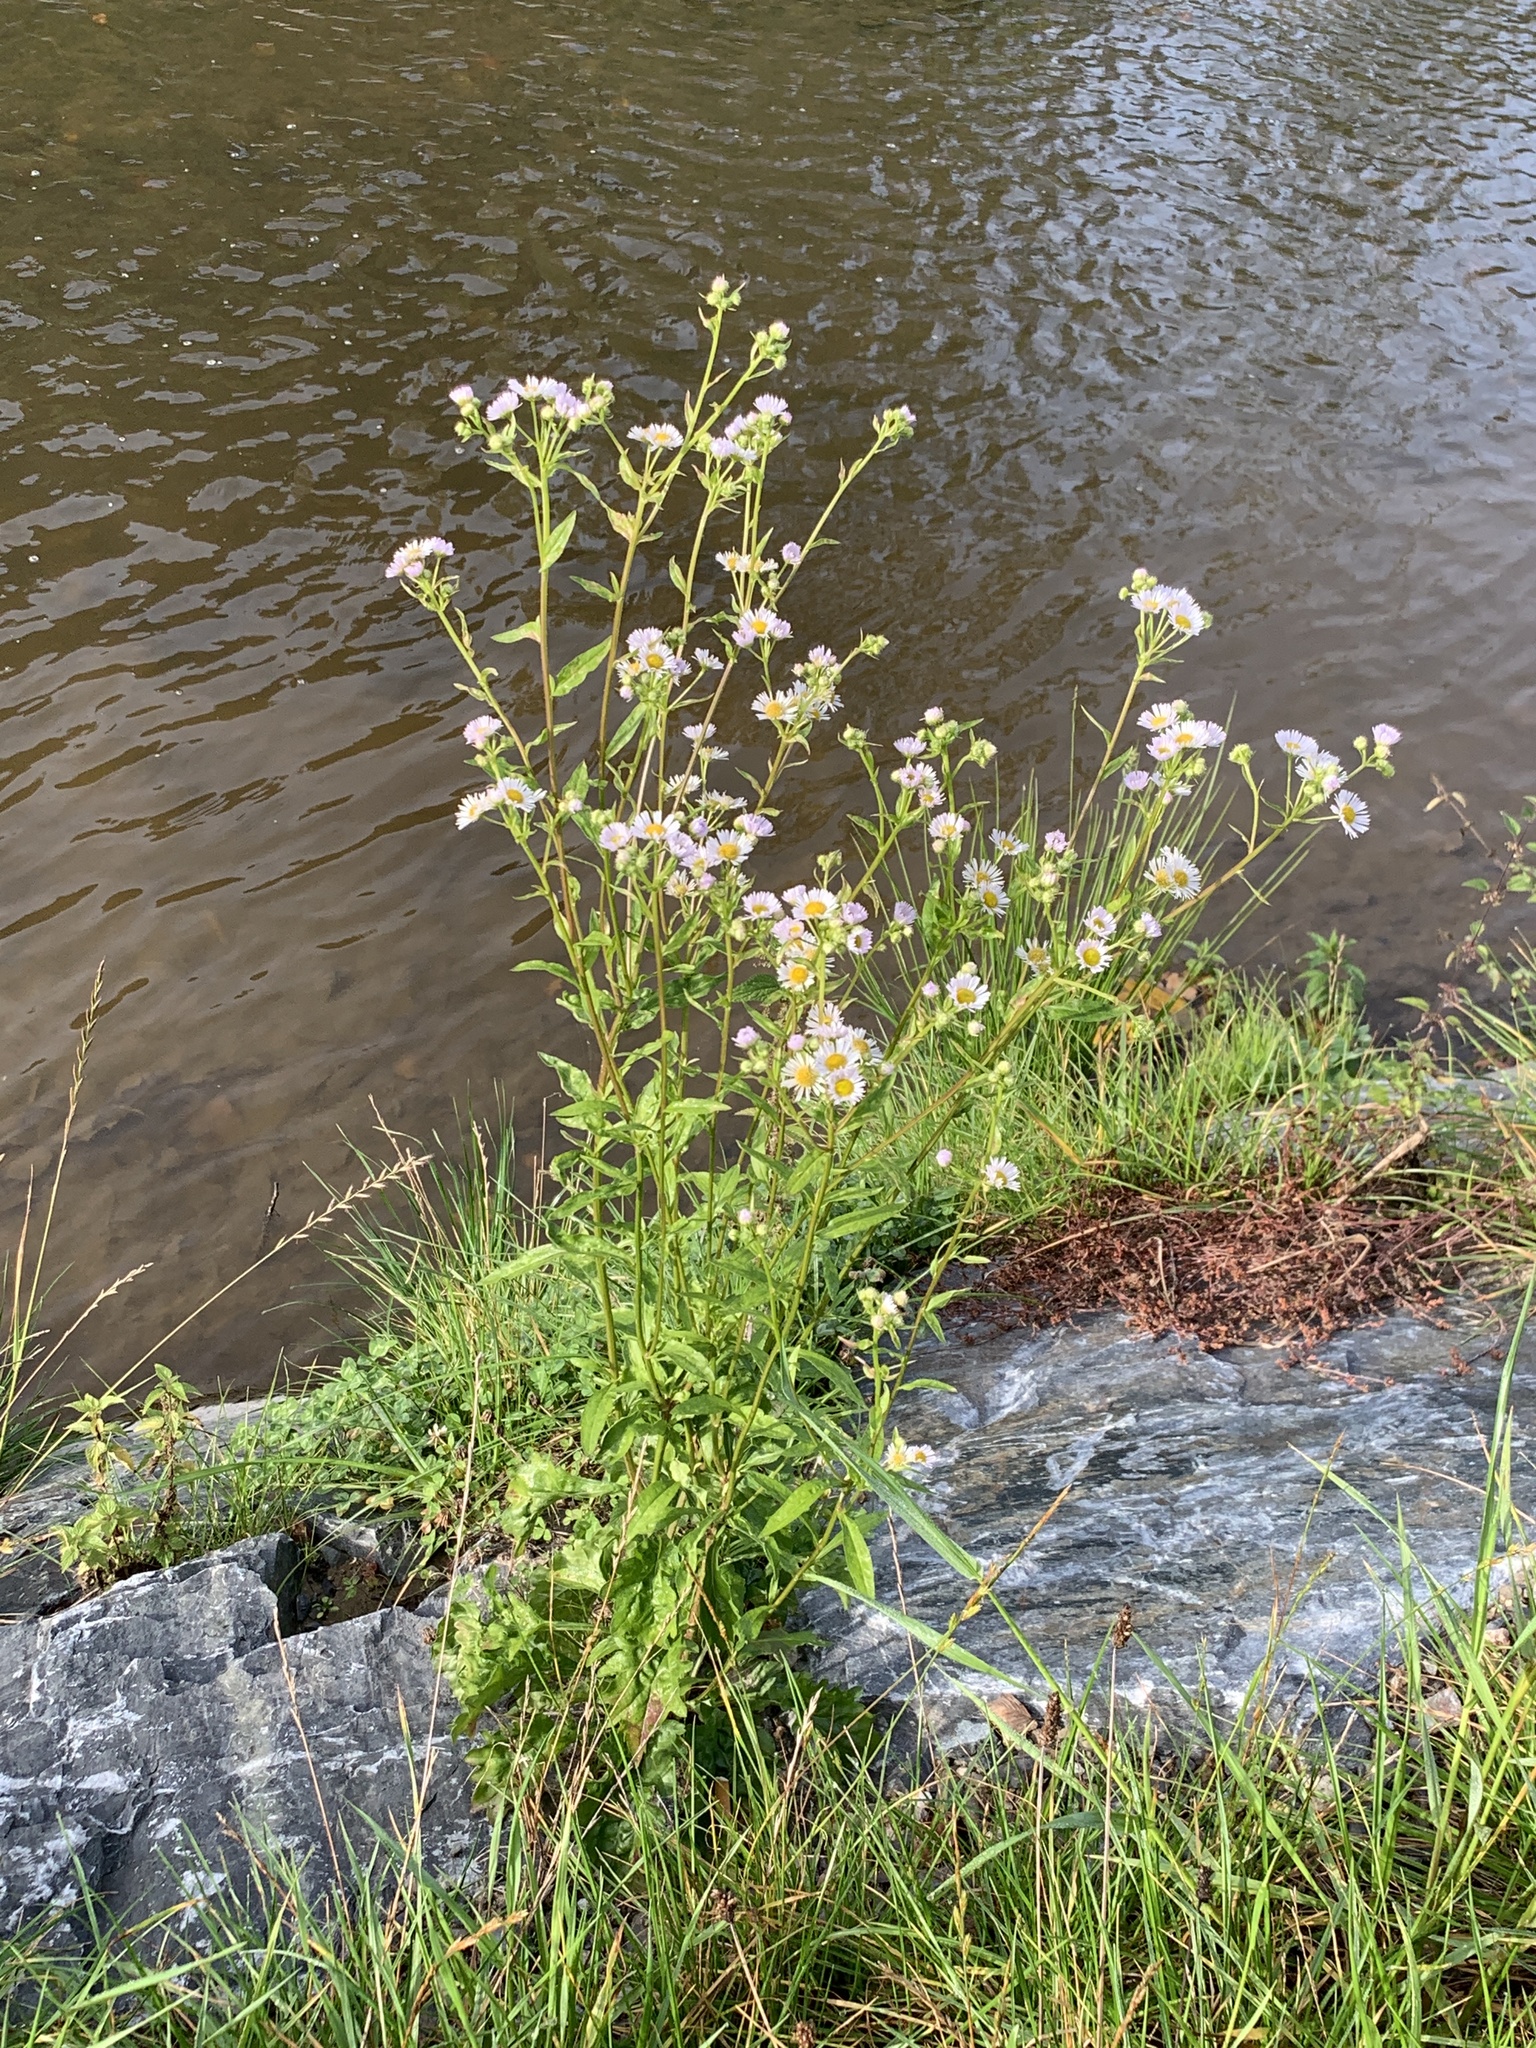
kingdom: Plantae
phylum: Tracheophyta
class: Magnoliopsida
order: Asterales
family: Asteraceae
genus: Erigeron
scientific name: Erigeron annuus
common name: Tall fleabane
